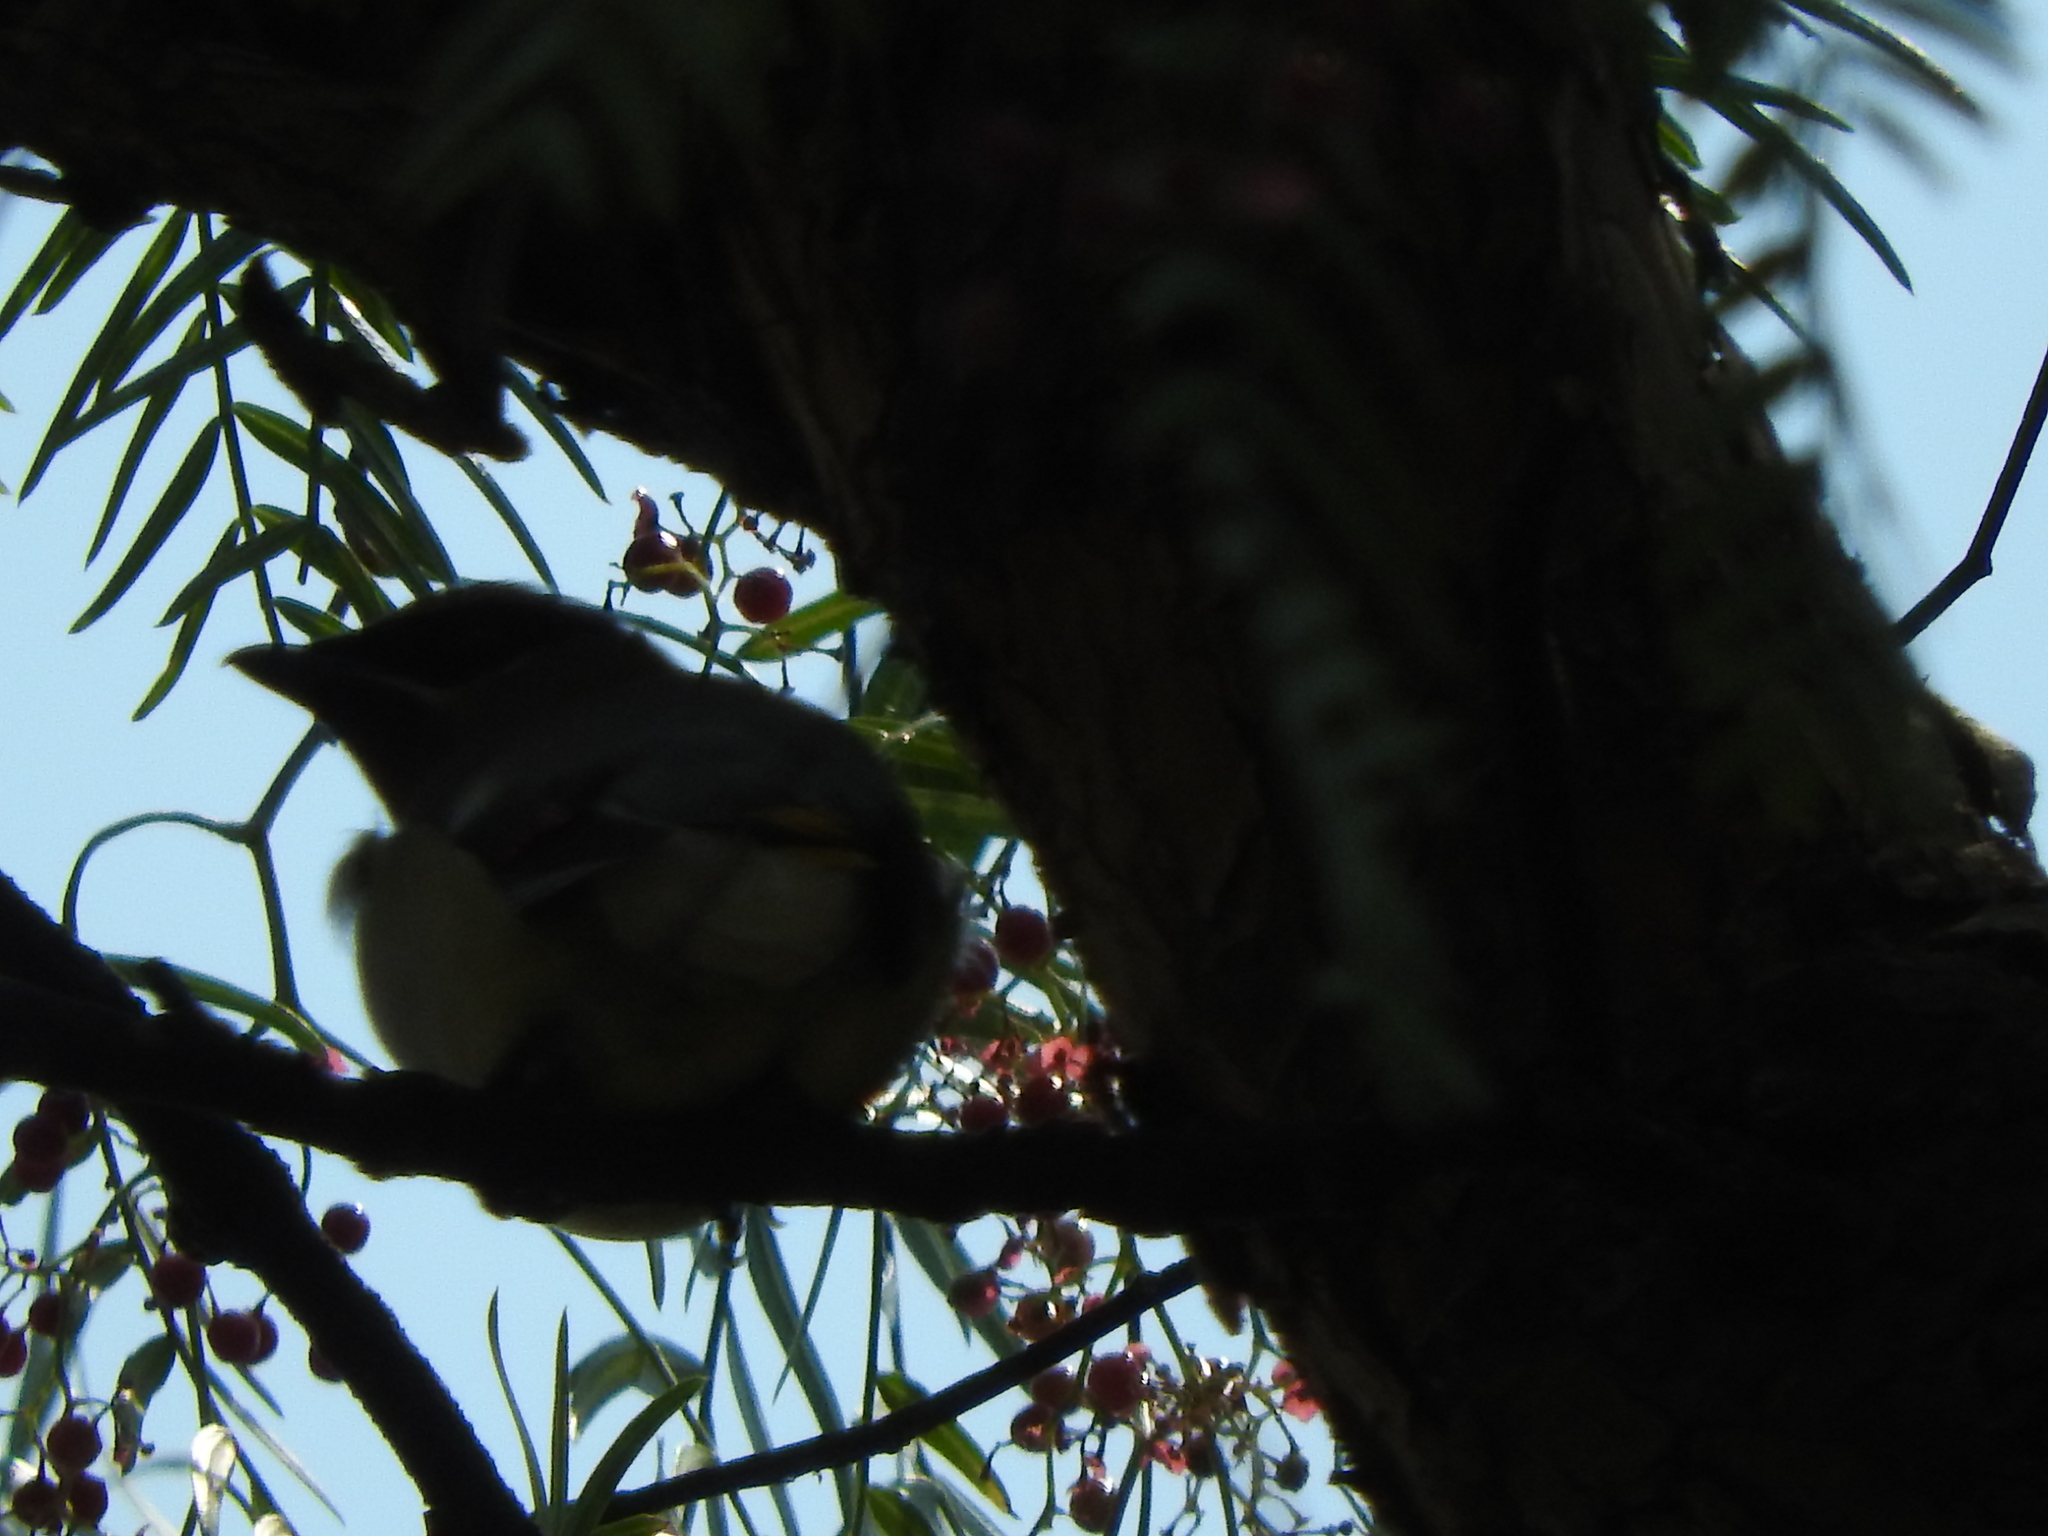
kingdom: Animalia
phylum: Chordata
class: Aves
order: Passeriformes
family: Bombycillidae
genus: Bombycilla
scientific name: Bombycilla cedrorum
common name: Cedar waxwing
